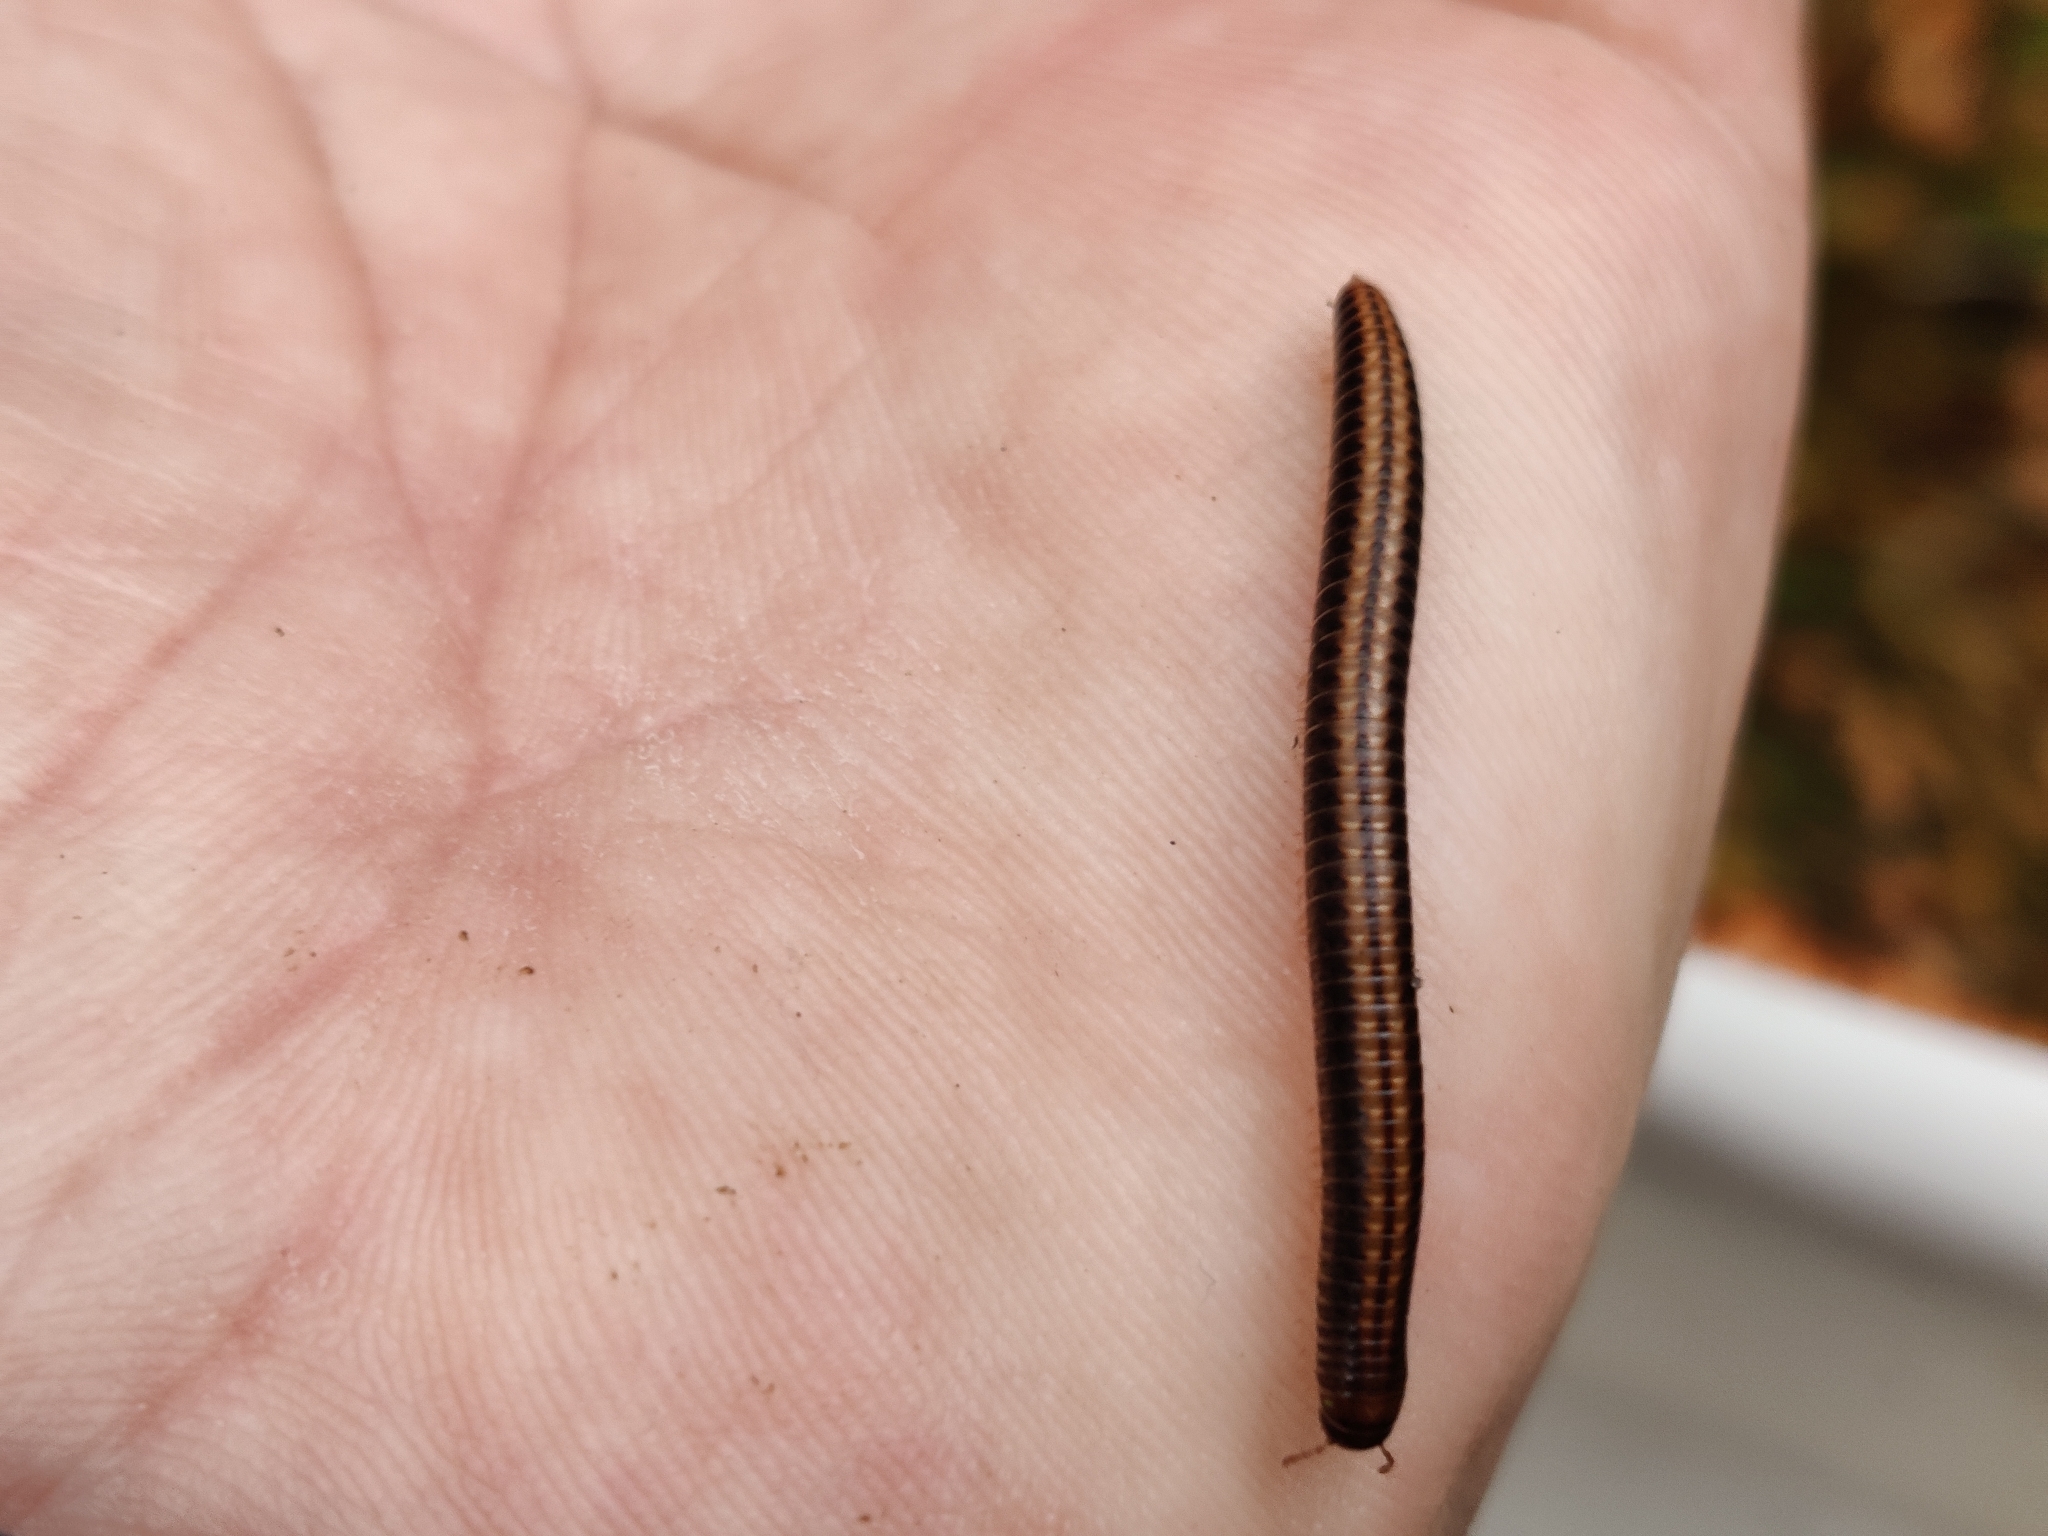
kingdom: Animalia
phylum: Arthropoda
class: Diplopoda
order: Julida
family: Julidae
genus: Ommatoiulus
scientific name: Ommatoiulus sabulosus
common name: Striped millipede
